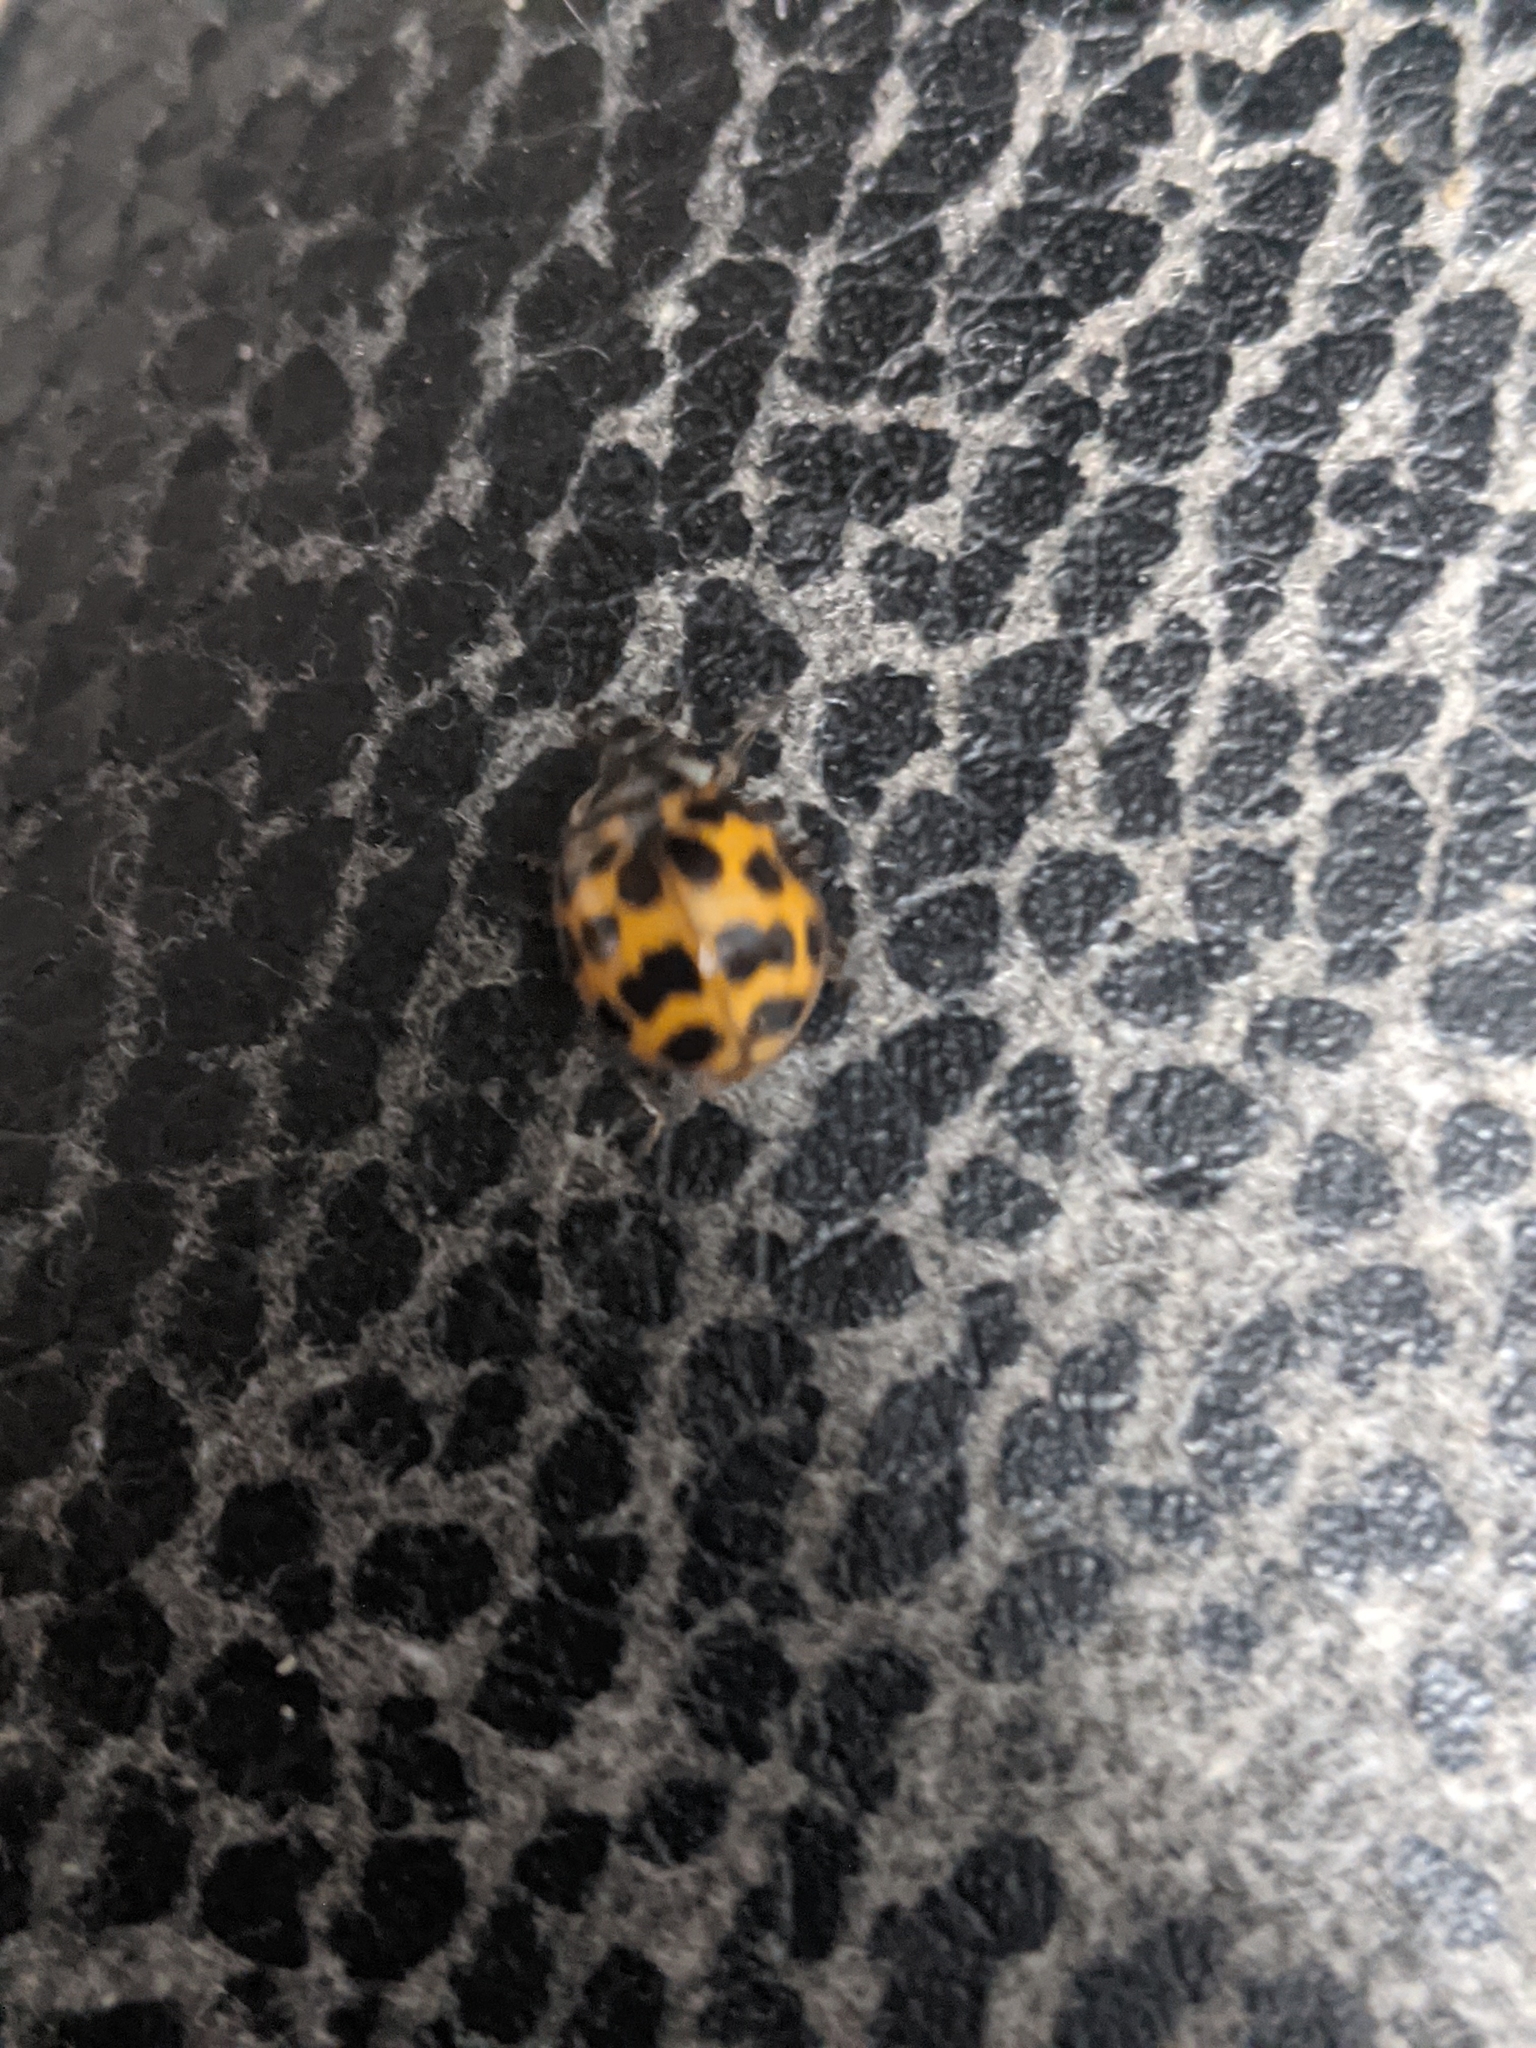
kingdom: Animalia
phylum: Arthropoda
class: Insecta
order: Coleoptera
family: Coccinellidae
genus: Harmonia
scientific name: Harmonia axyridis
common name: Harlequin ladybird
